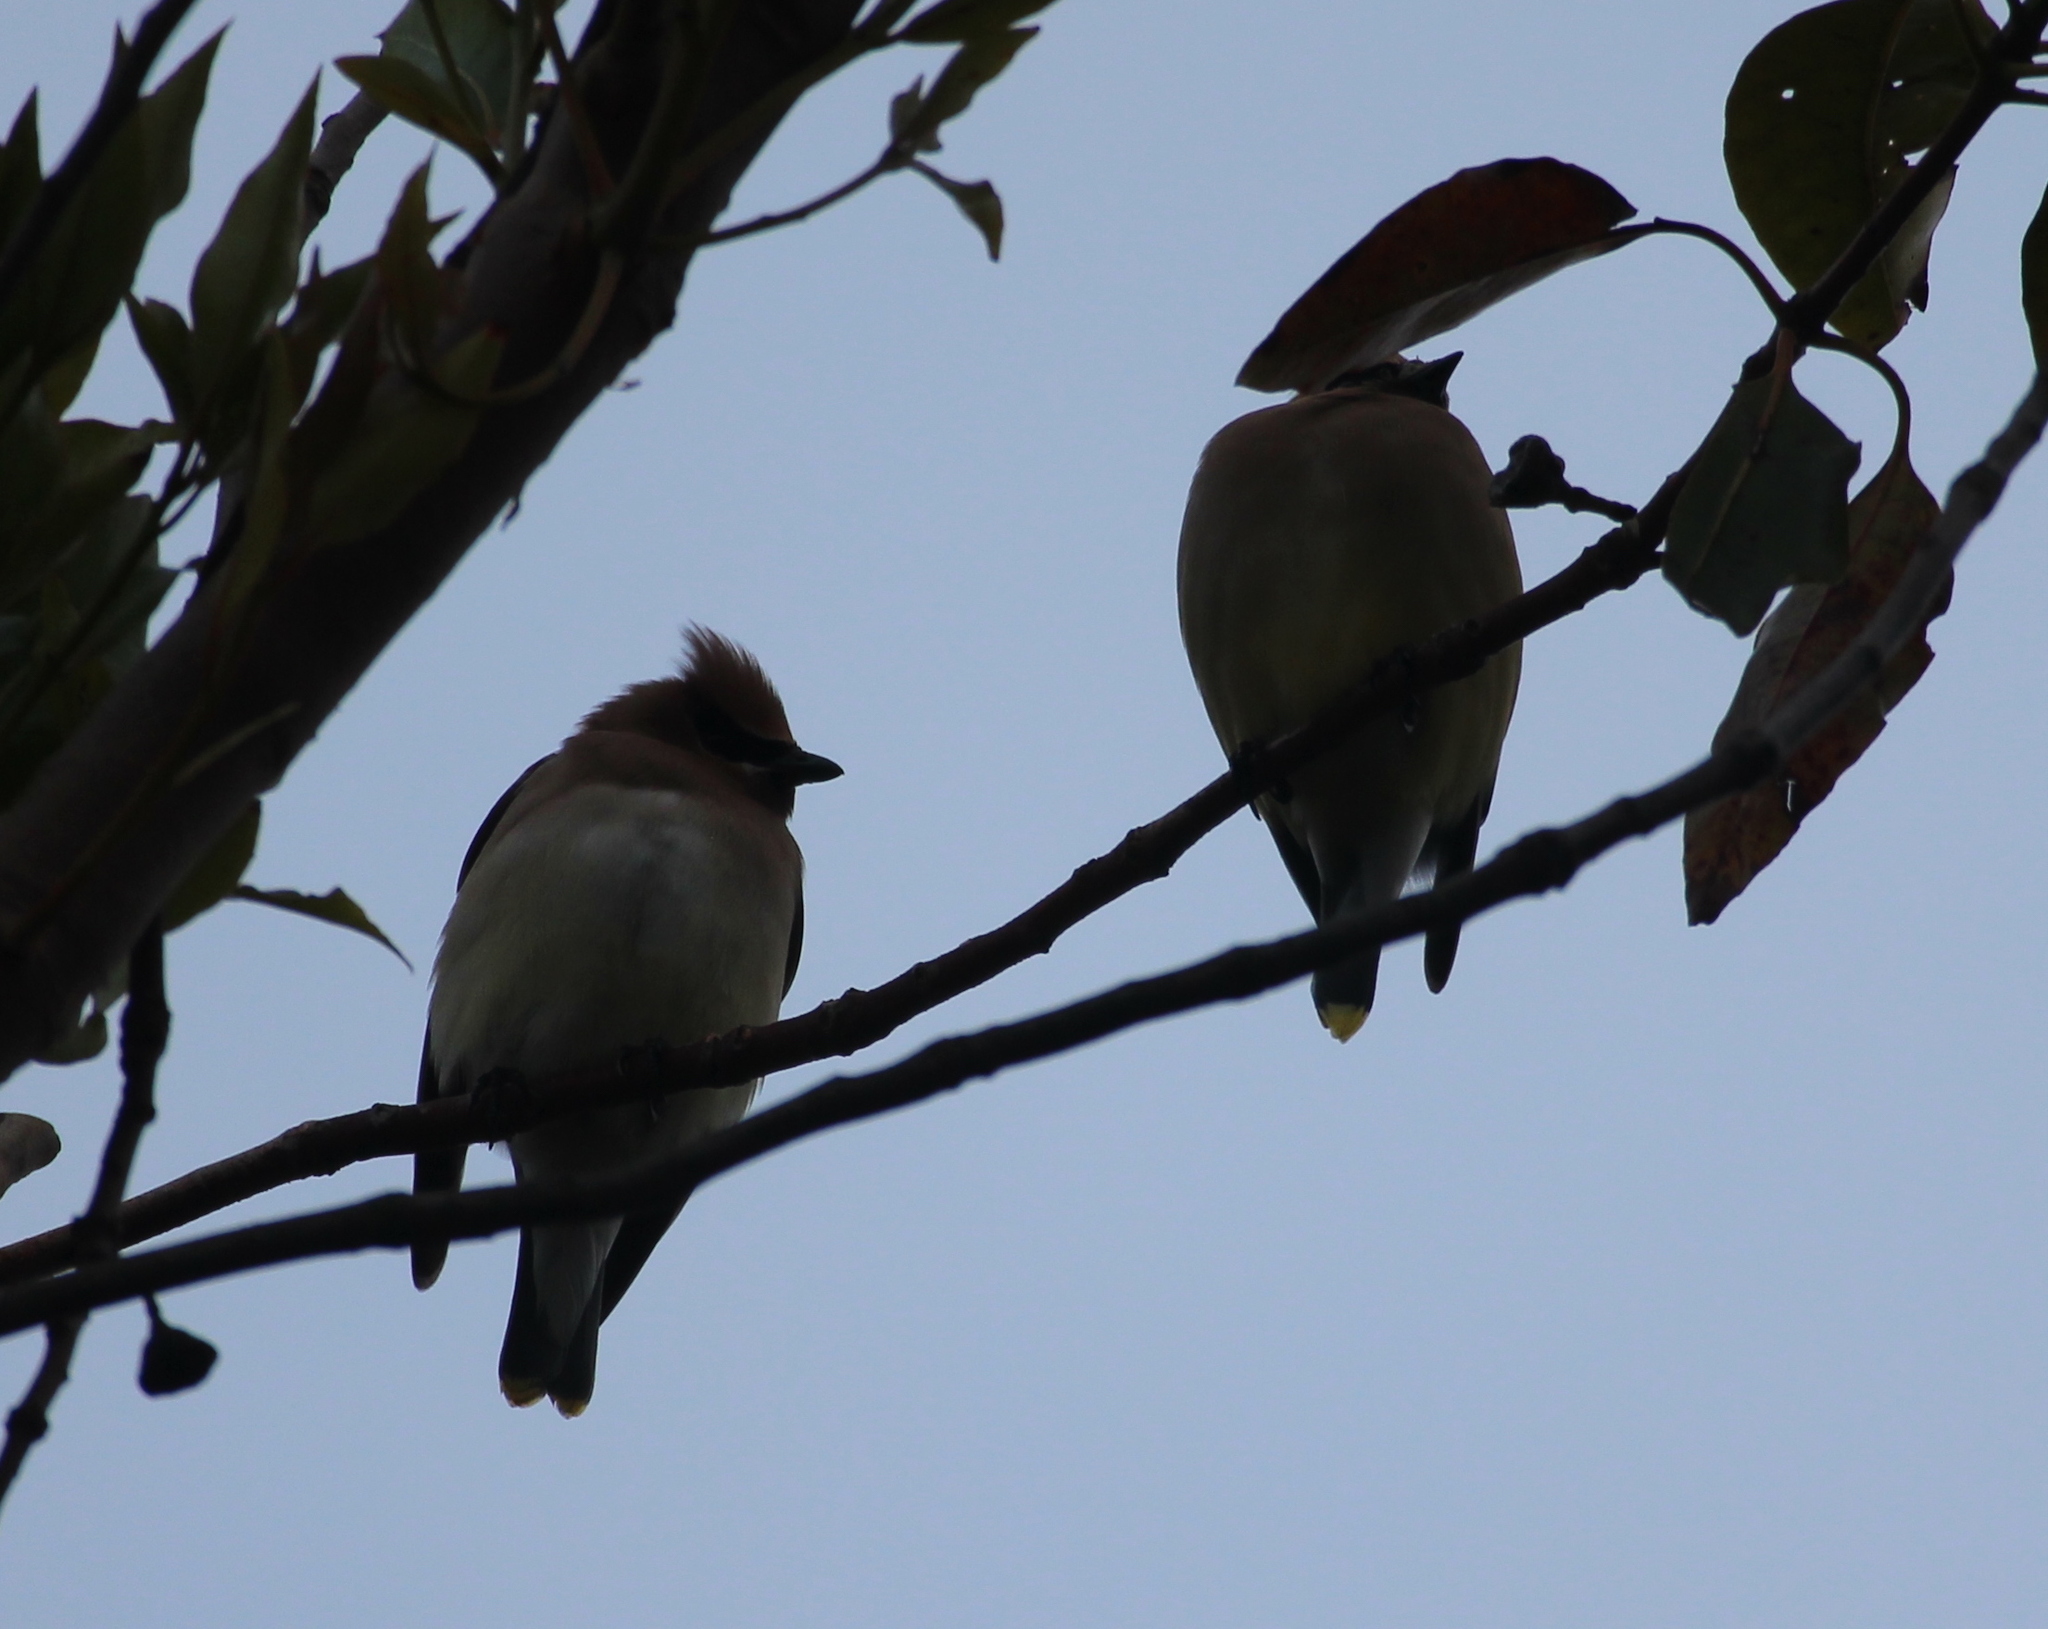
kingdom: Animalia
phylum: Chordata
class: Aves
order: Passeriformes
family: Bombycillidae
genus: Bombycilla
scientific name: Bombycilla cedrorum
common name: Cedar waxwing
